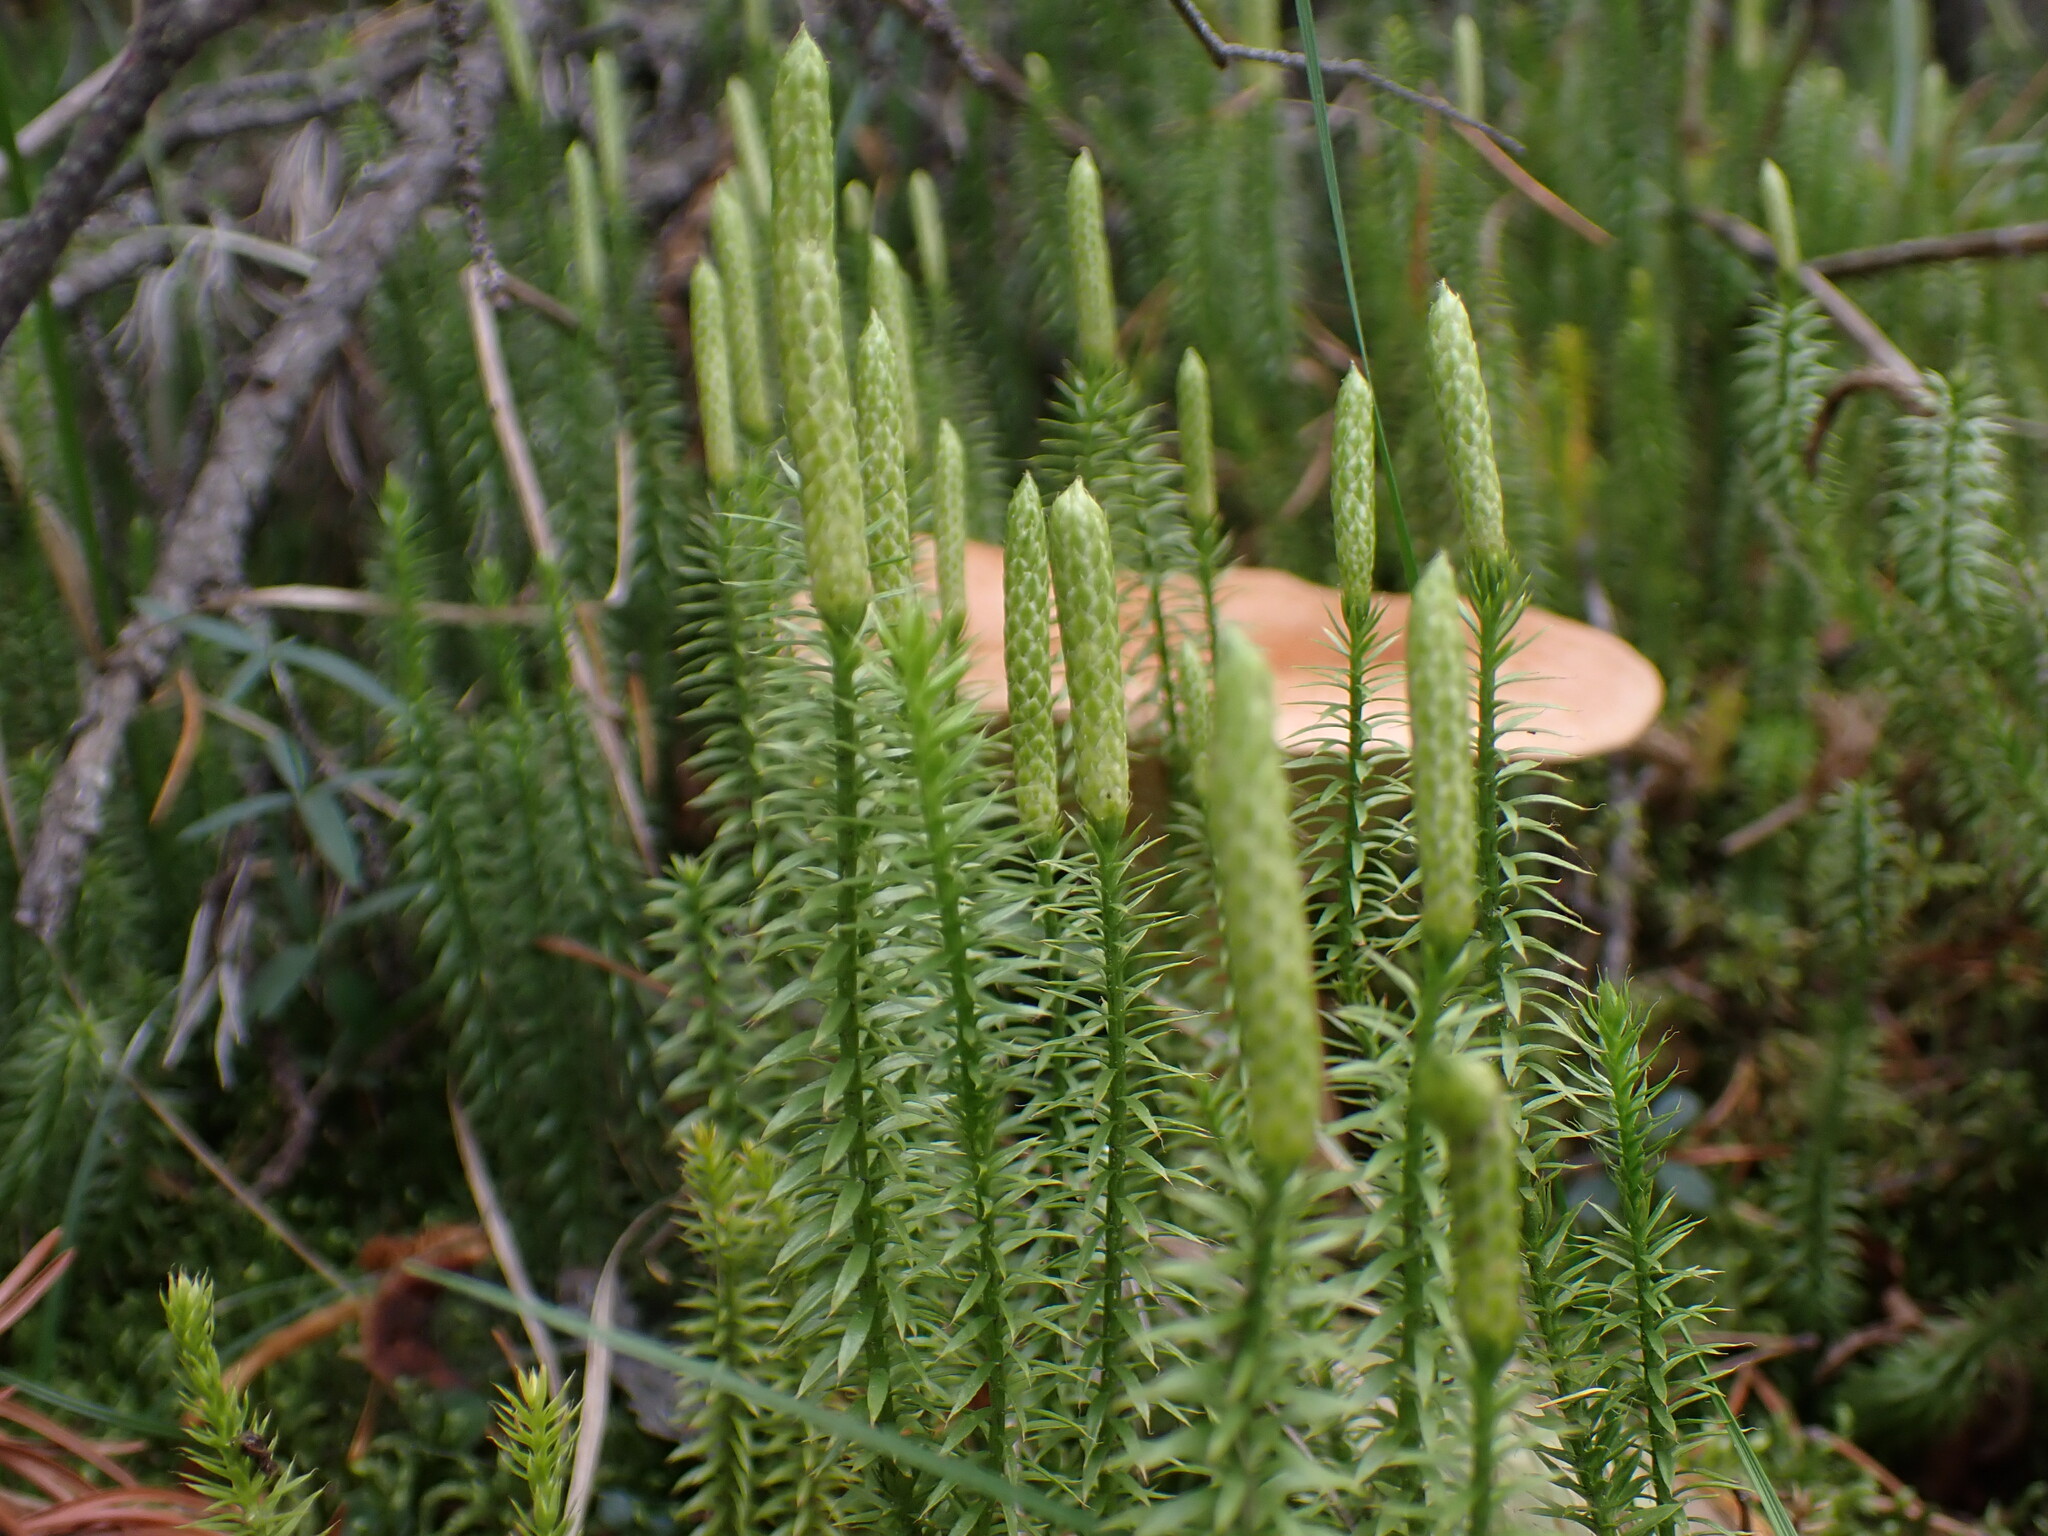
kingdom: Plantae
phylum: Tracheophyta
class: Lycopodiopsida
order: Lycopodiales
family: Lycopodiaceae
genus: Spinulum
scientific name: Spinulum annotinum
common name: Interrupted club-moss
